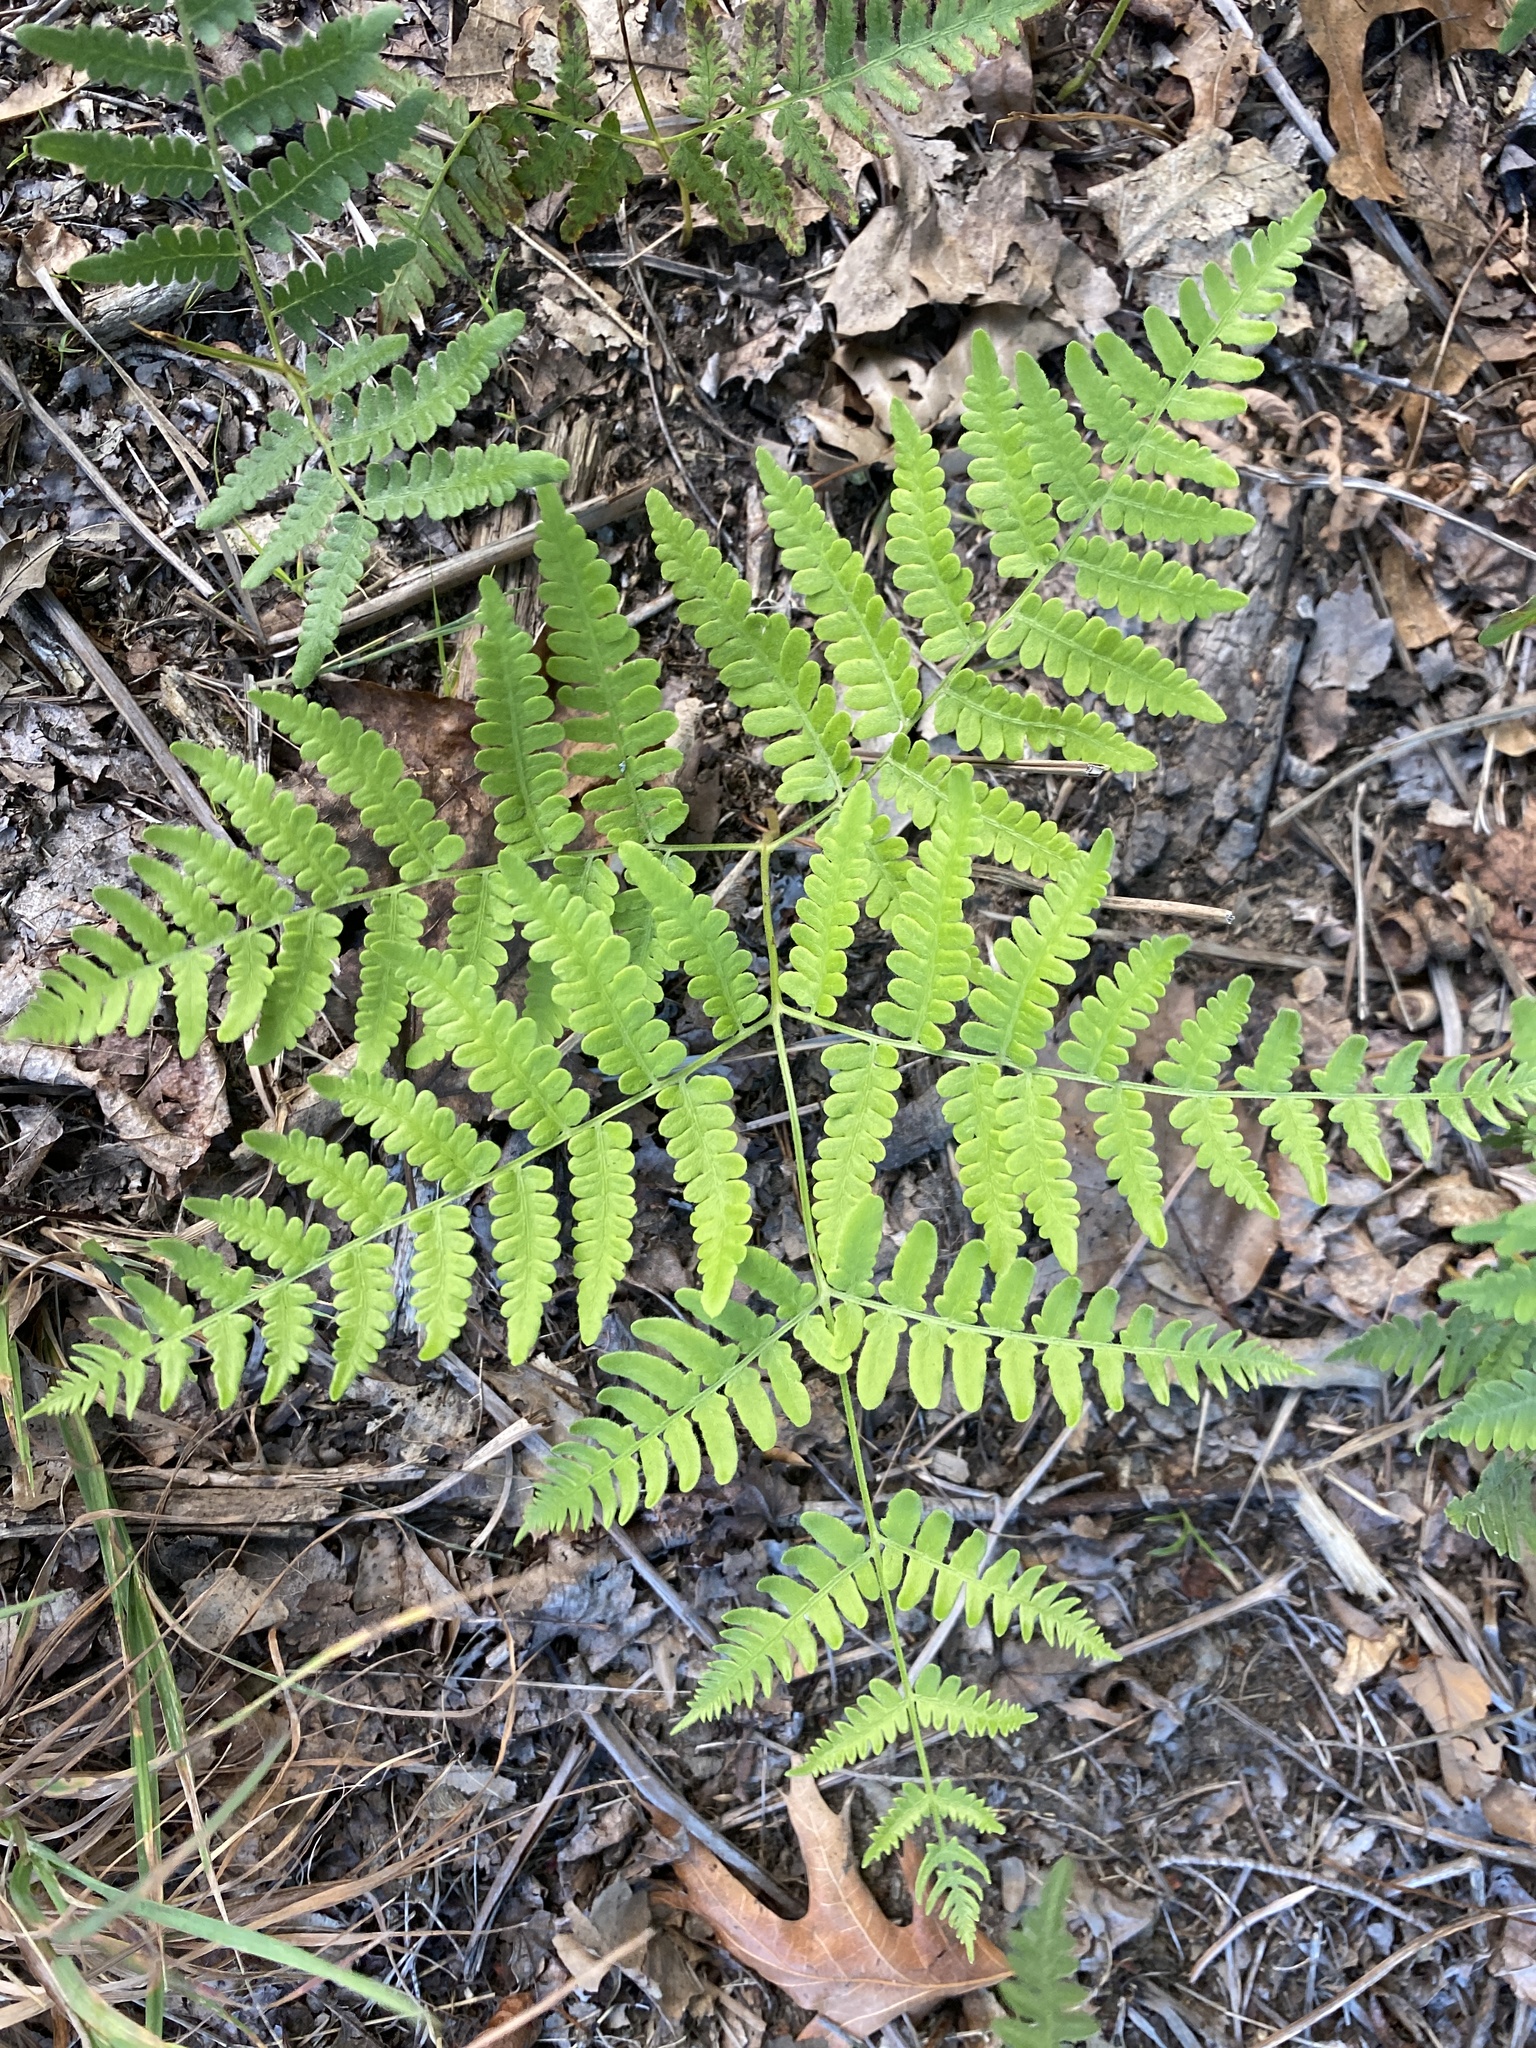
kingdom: Plantae
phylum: Tracheophyta
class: Polypodiopsida
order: Polypodiales
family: Dennstaedtiaceae
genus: Pteridium
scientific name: Pteridium aquilinum
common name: Bracken
